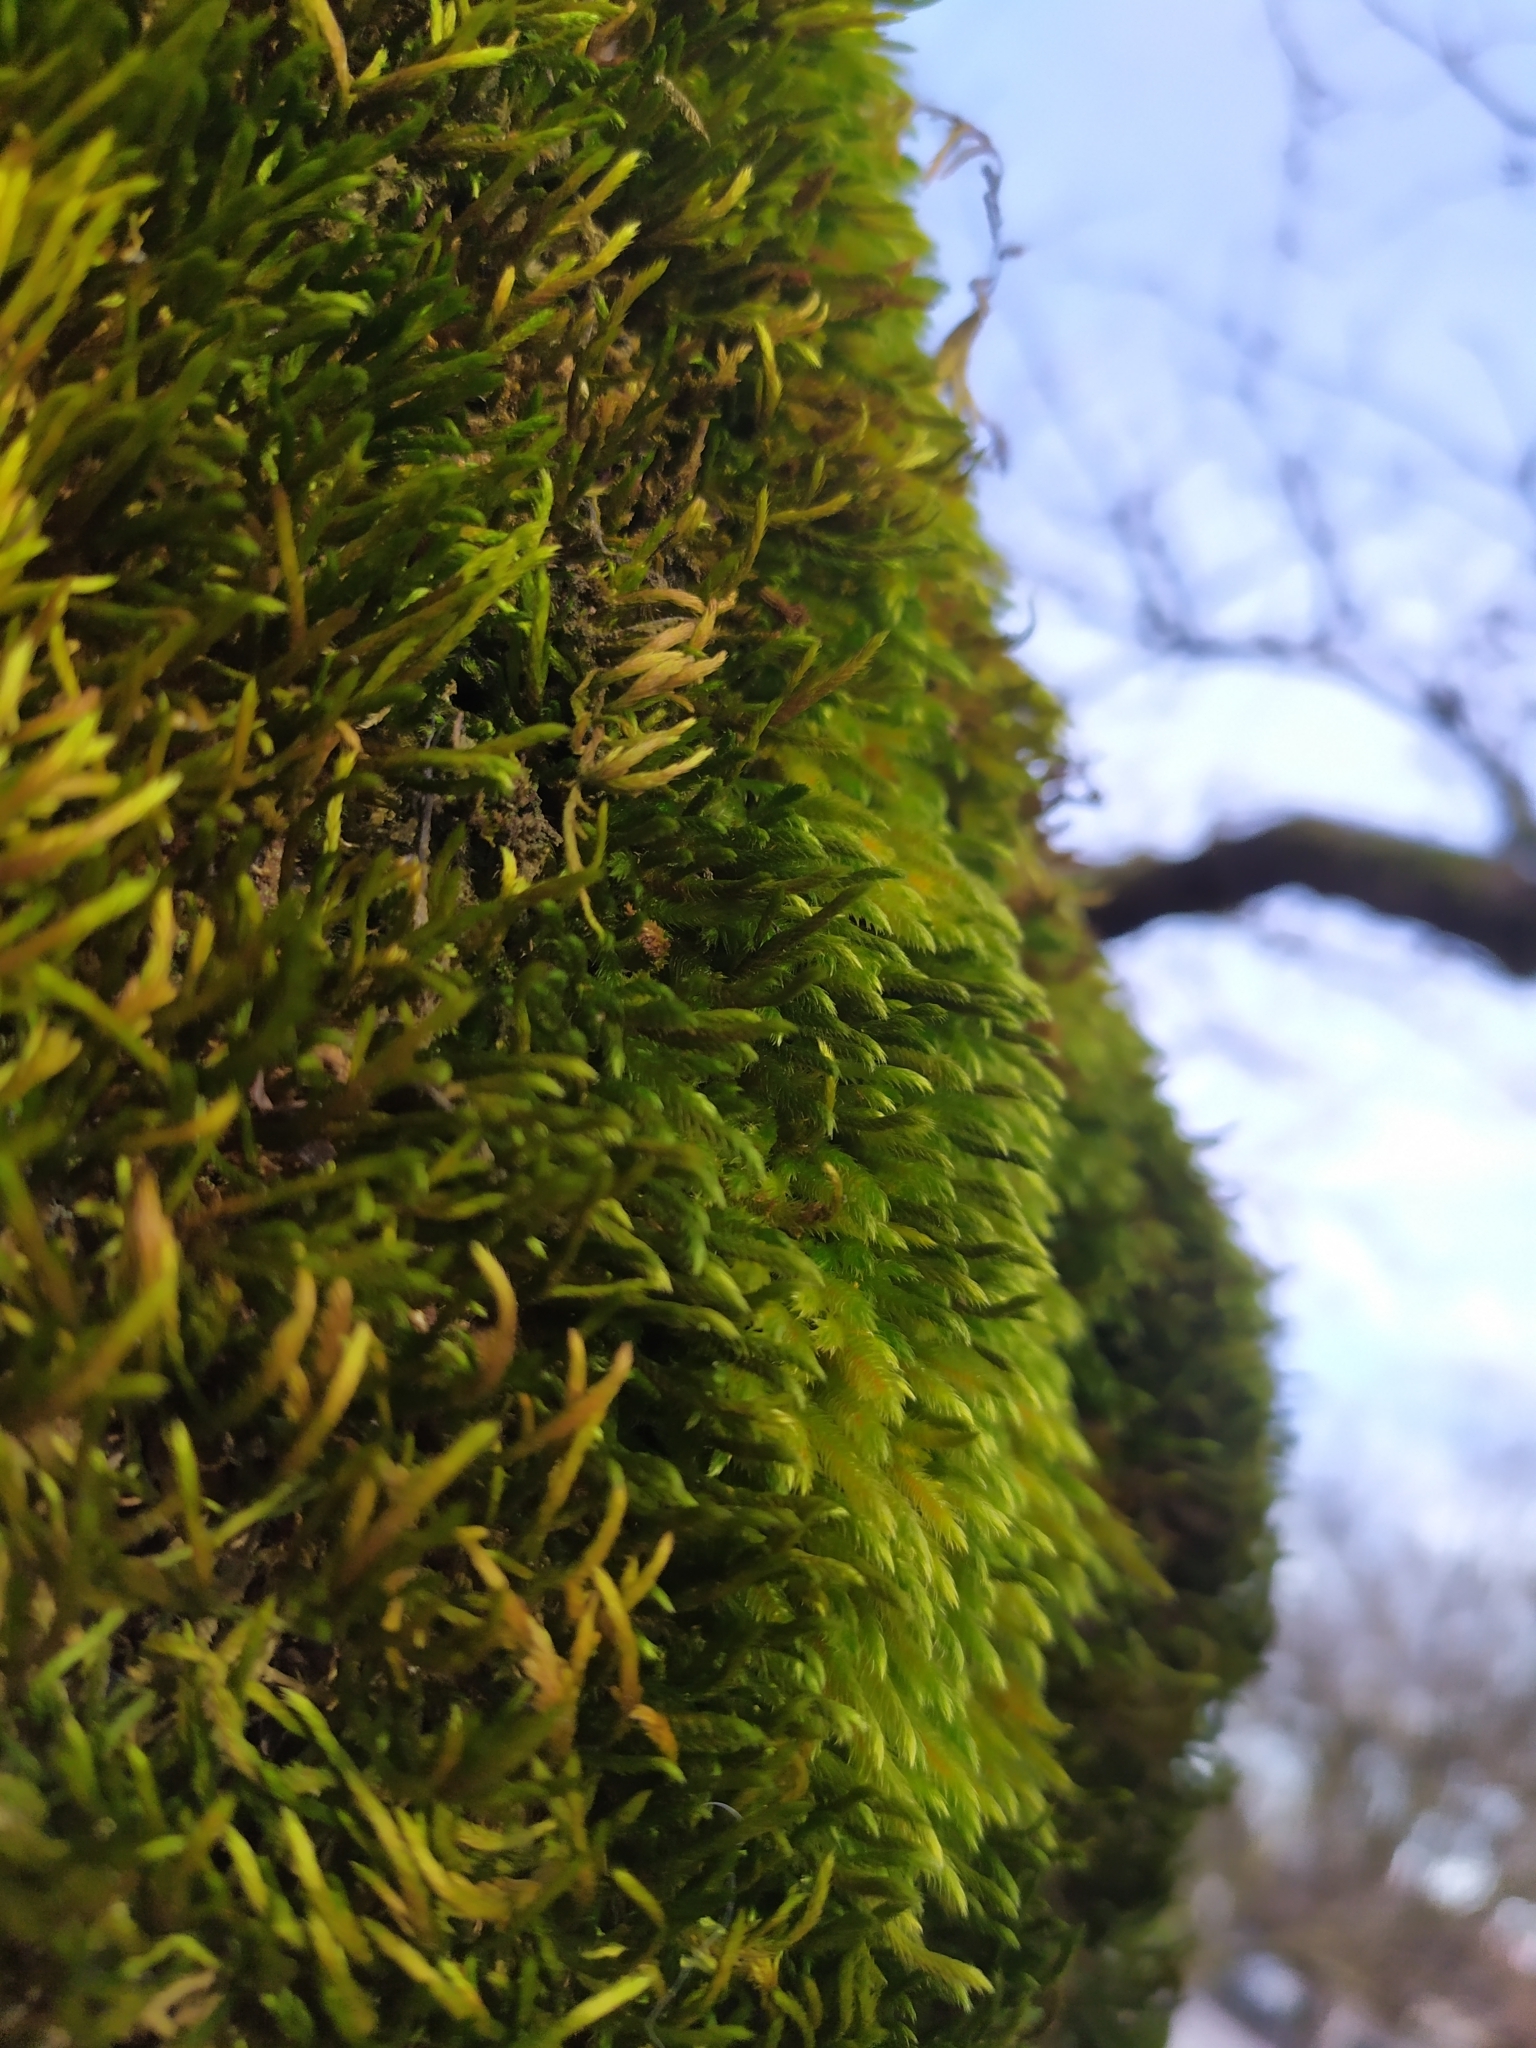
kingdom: Plantae
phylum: Bryophyta
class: Bryopsida
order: Hypnales
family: Leucodontaceae
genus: Leucodon
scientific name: Leucodon sciuroides
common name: Squirrel-tail moss
